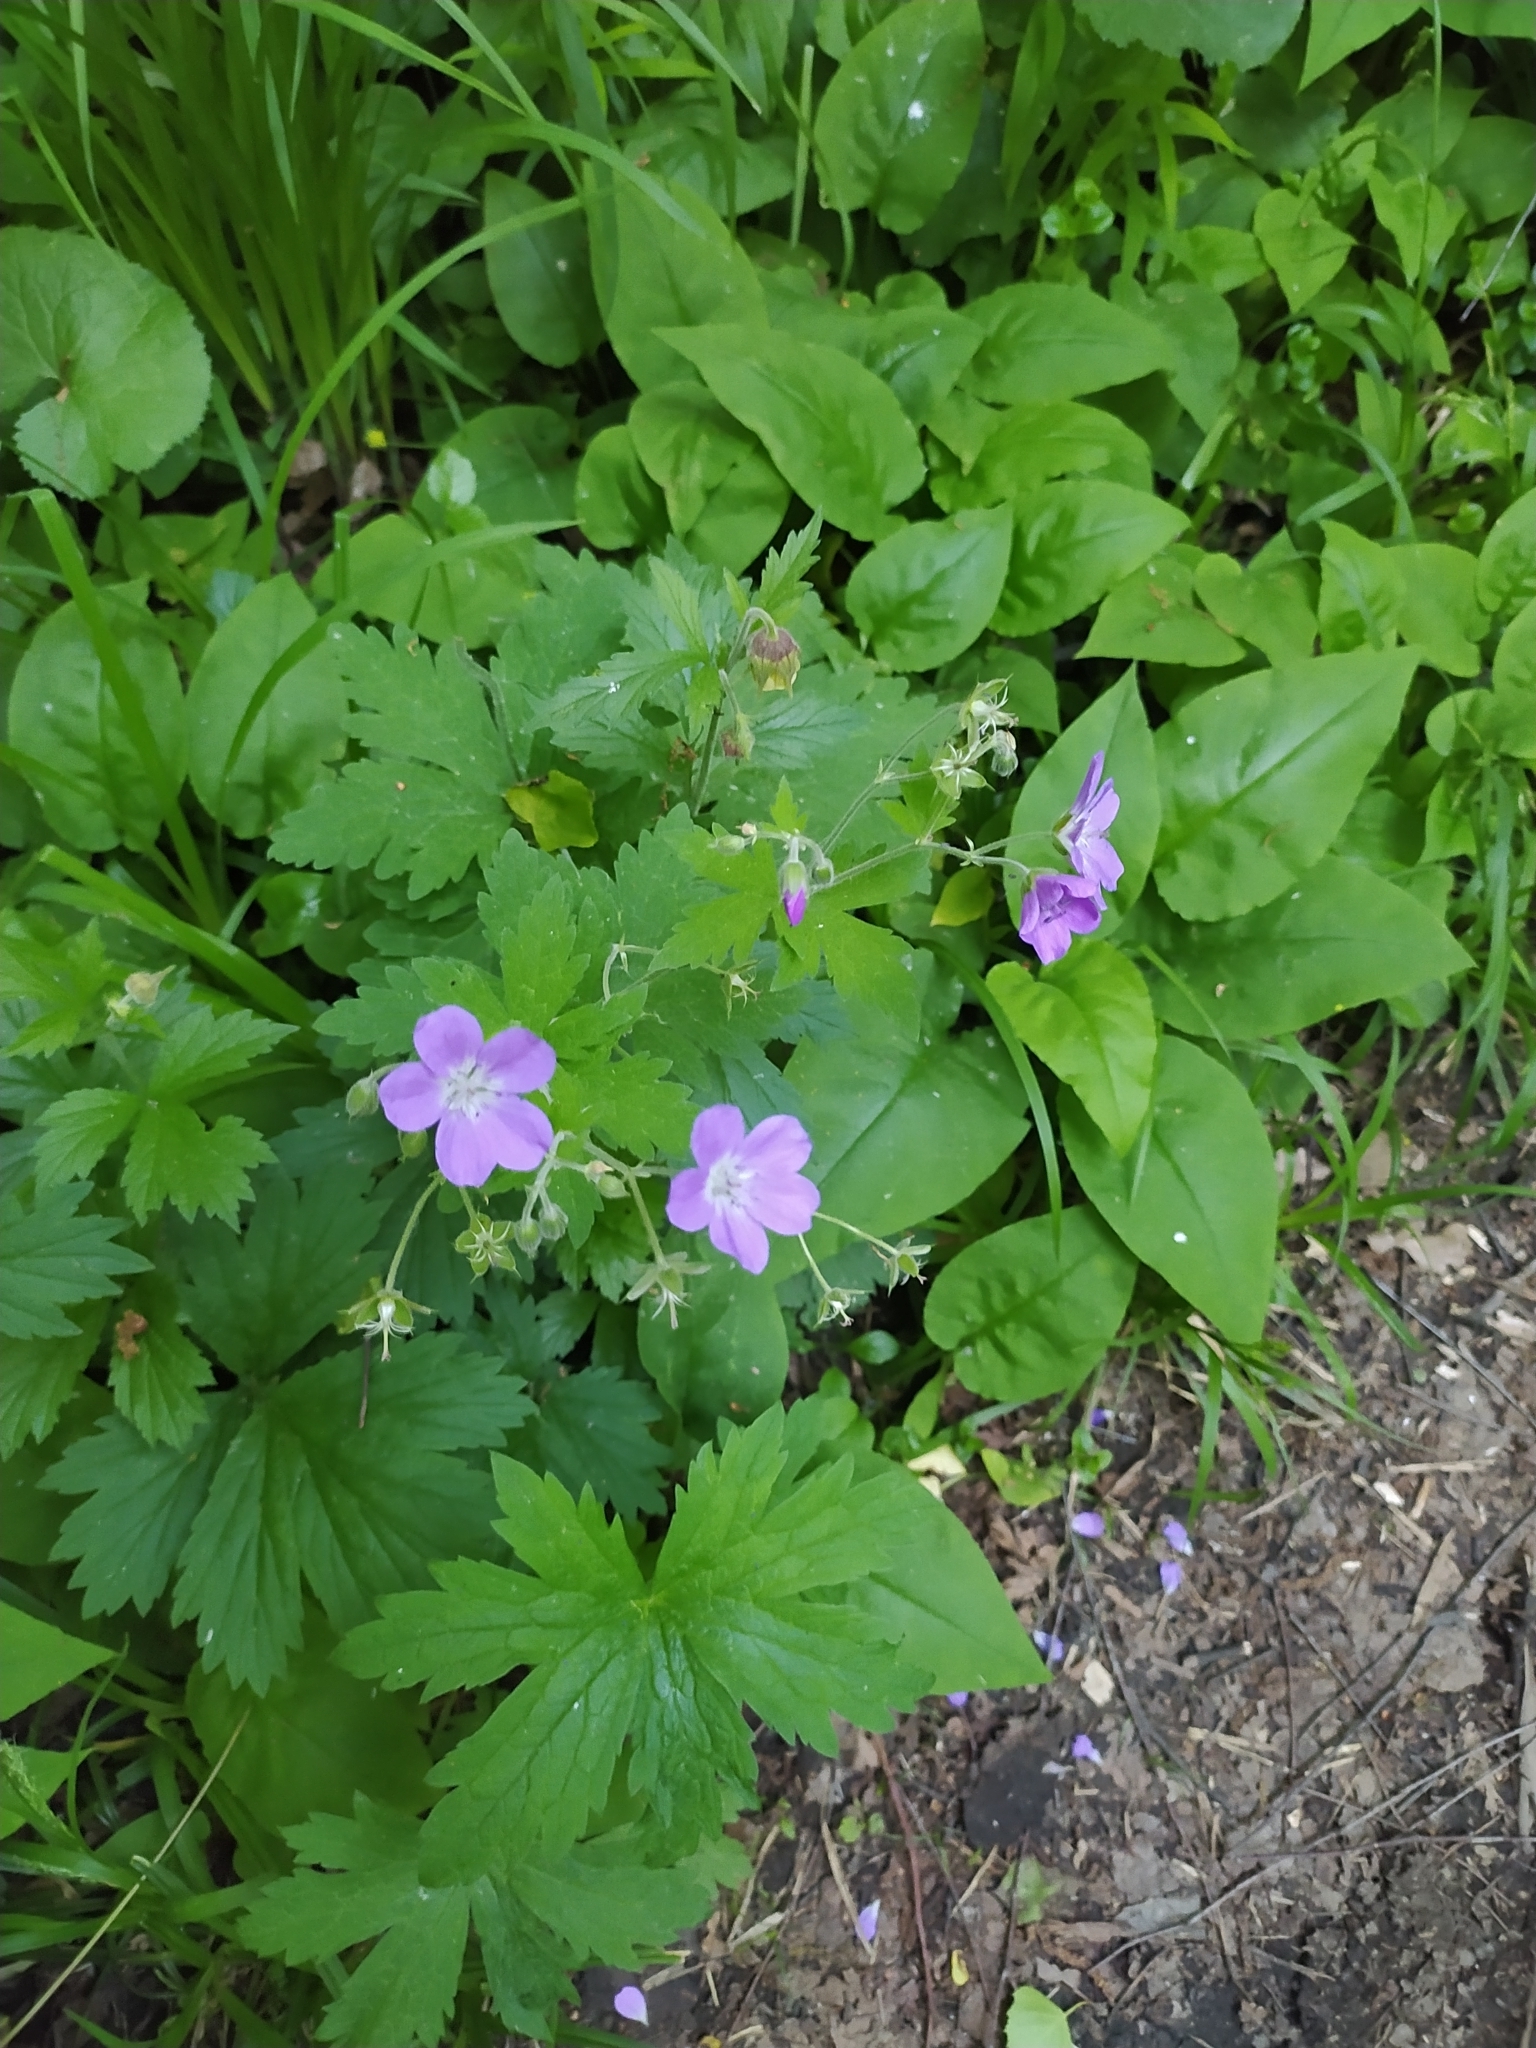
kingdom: Plantae
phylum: Tracheophyta
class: Magnoliopsida
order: Geraniales
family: Geraniaceae
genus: Geranium
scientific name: Geranium sylvaticum
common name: Wood crane's-bill
